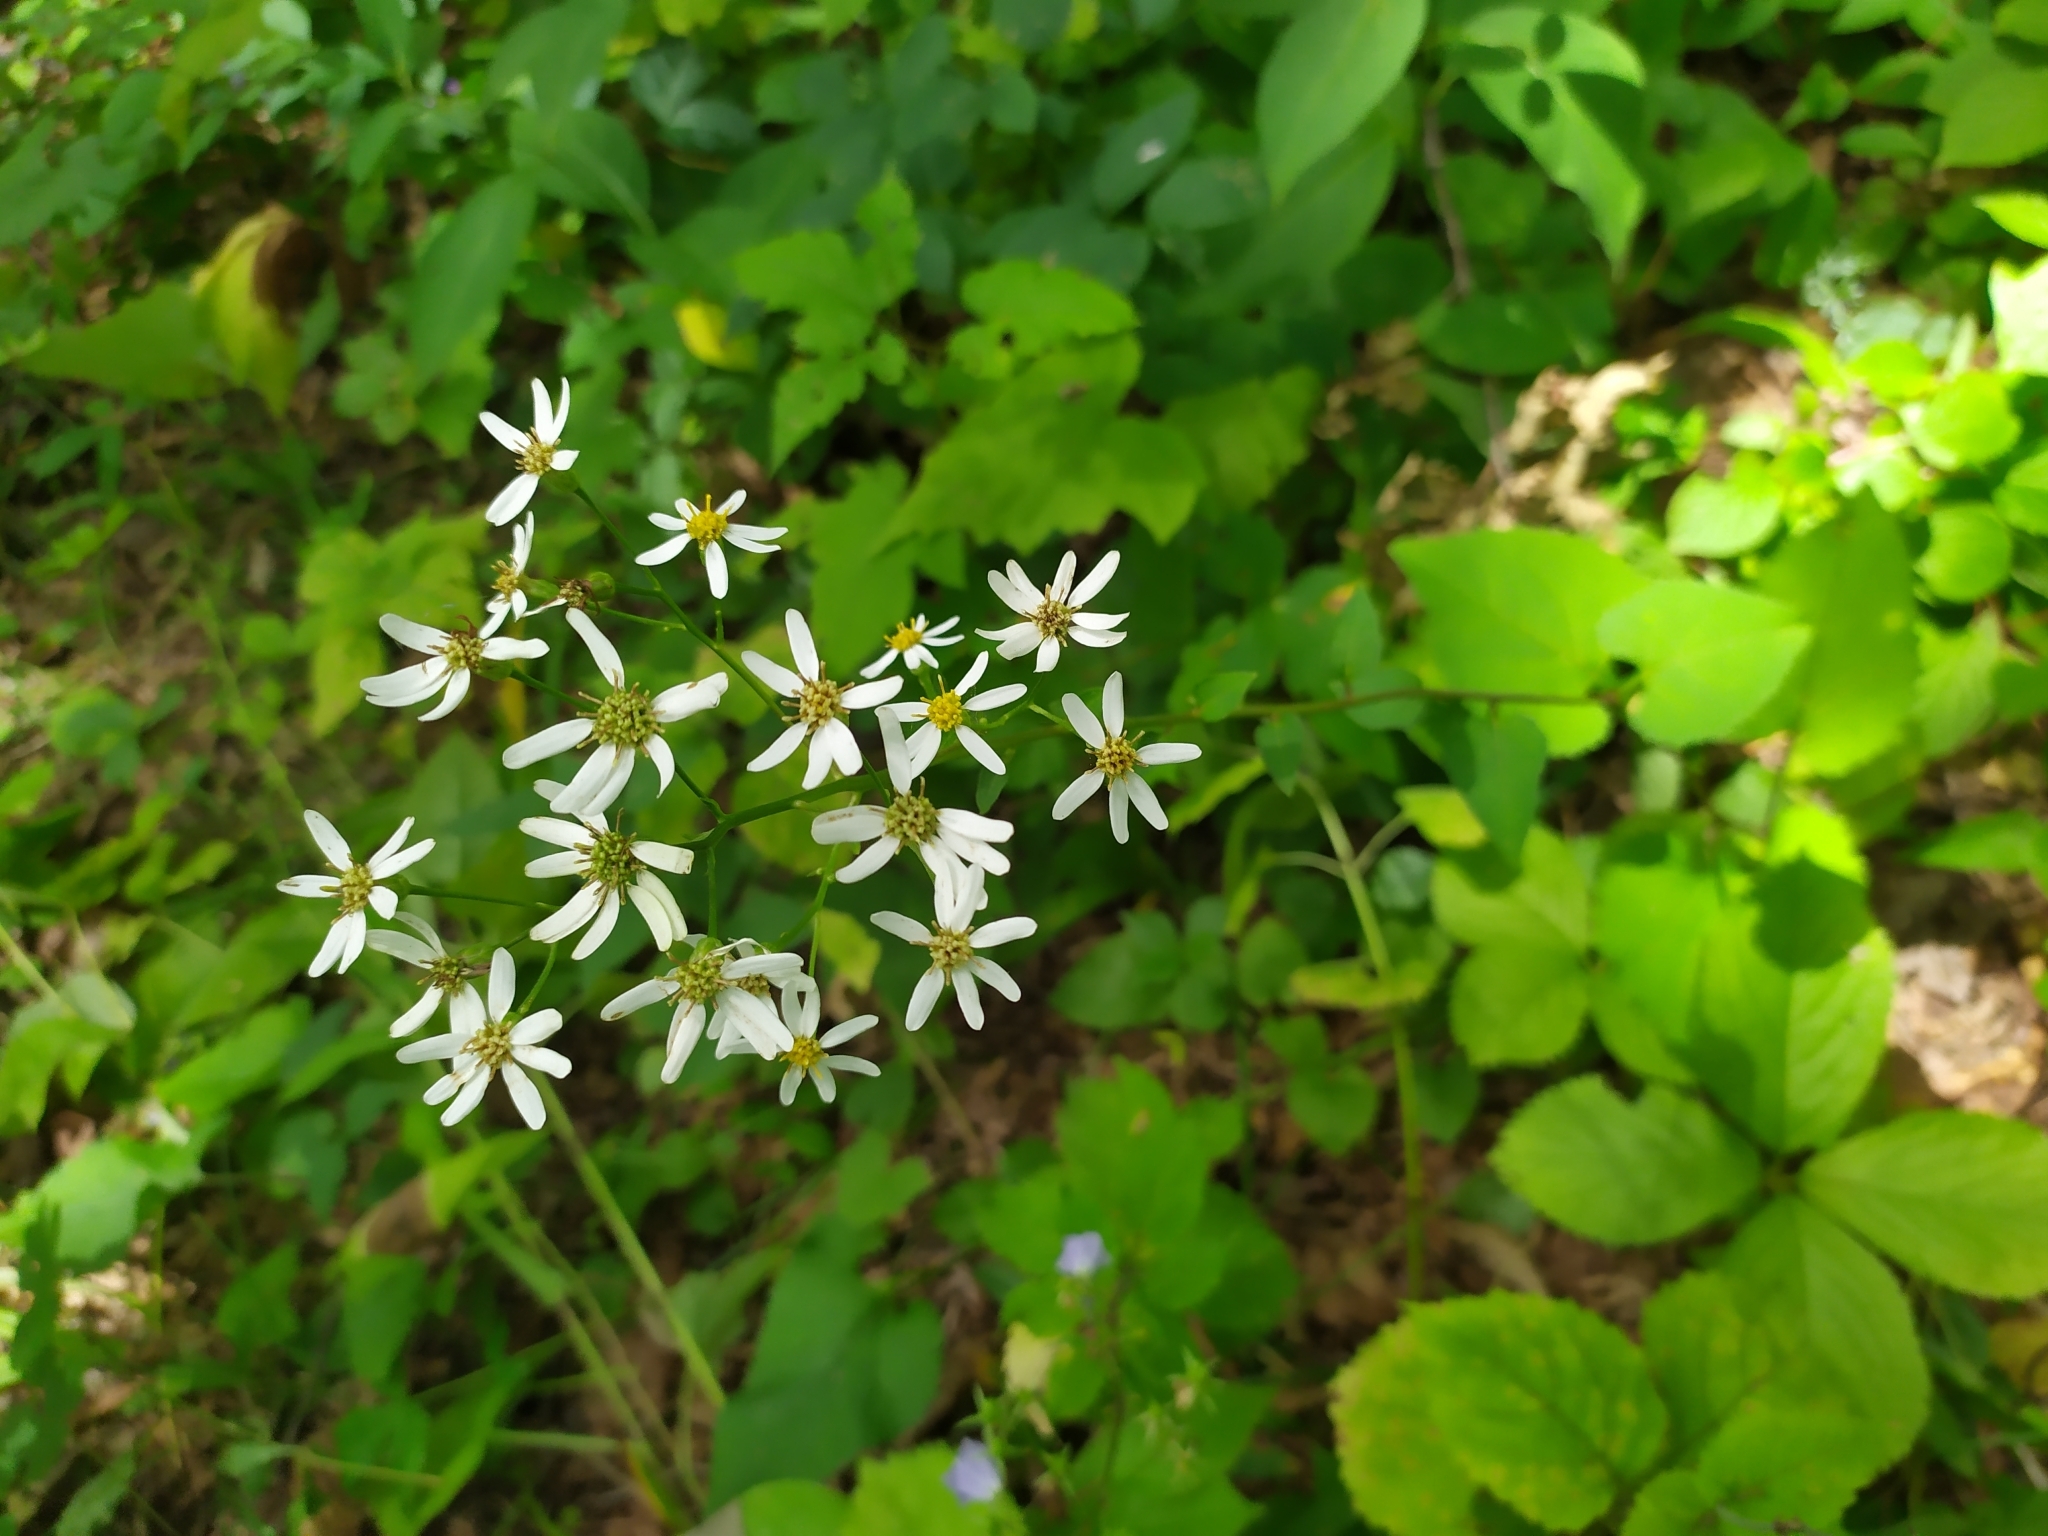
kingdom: Plantae
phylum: Tracheophyta
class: Magnoliopsida
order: Asterales
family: Asteraceae
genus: Aster
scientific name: Aster scaber
